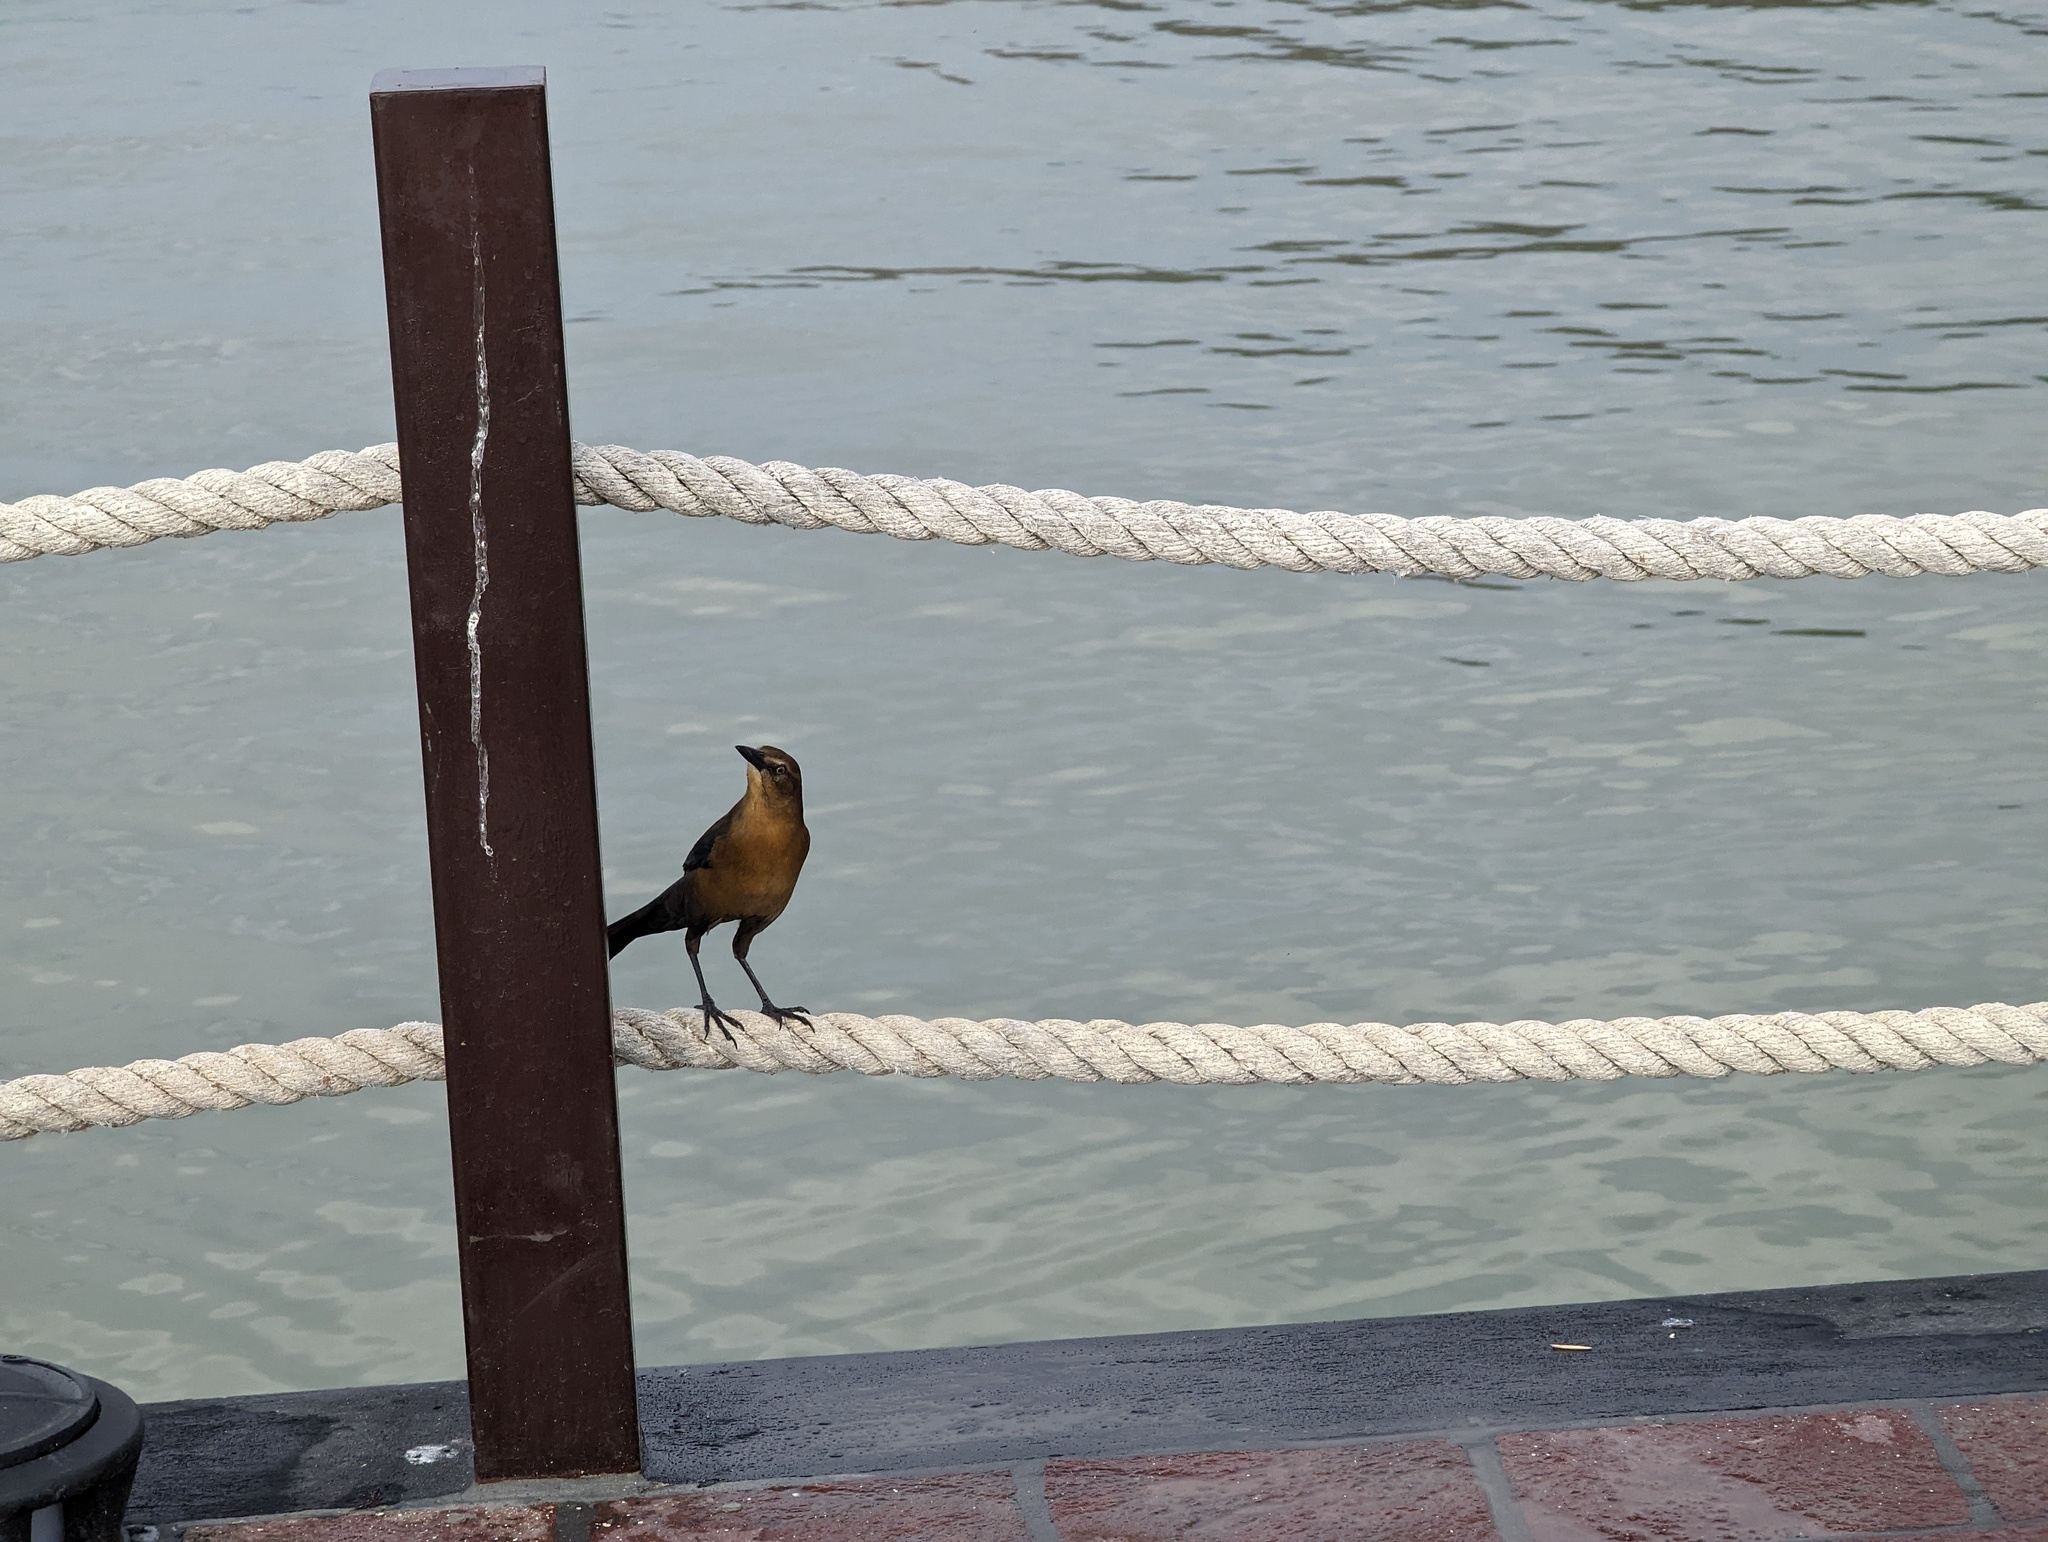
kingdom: Animalia
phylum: Chordata
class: Aves
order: Passeriformes
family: Icteridae
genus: Quiscalus
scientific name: Quiscalus mexicanus
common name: Great-tailed grackle
